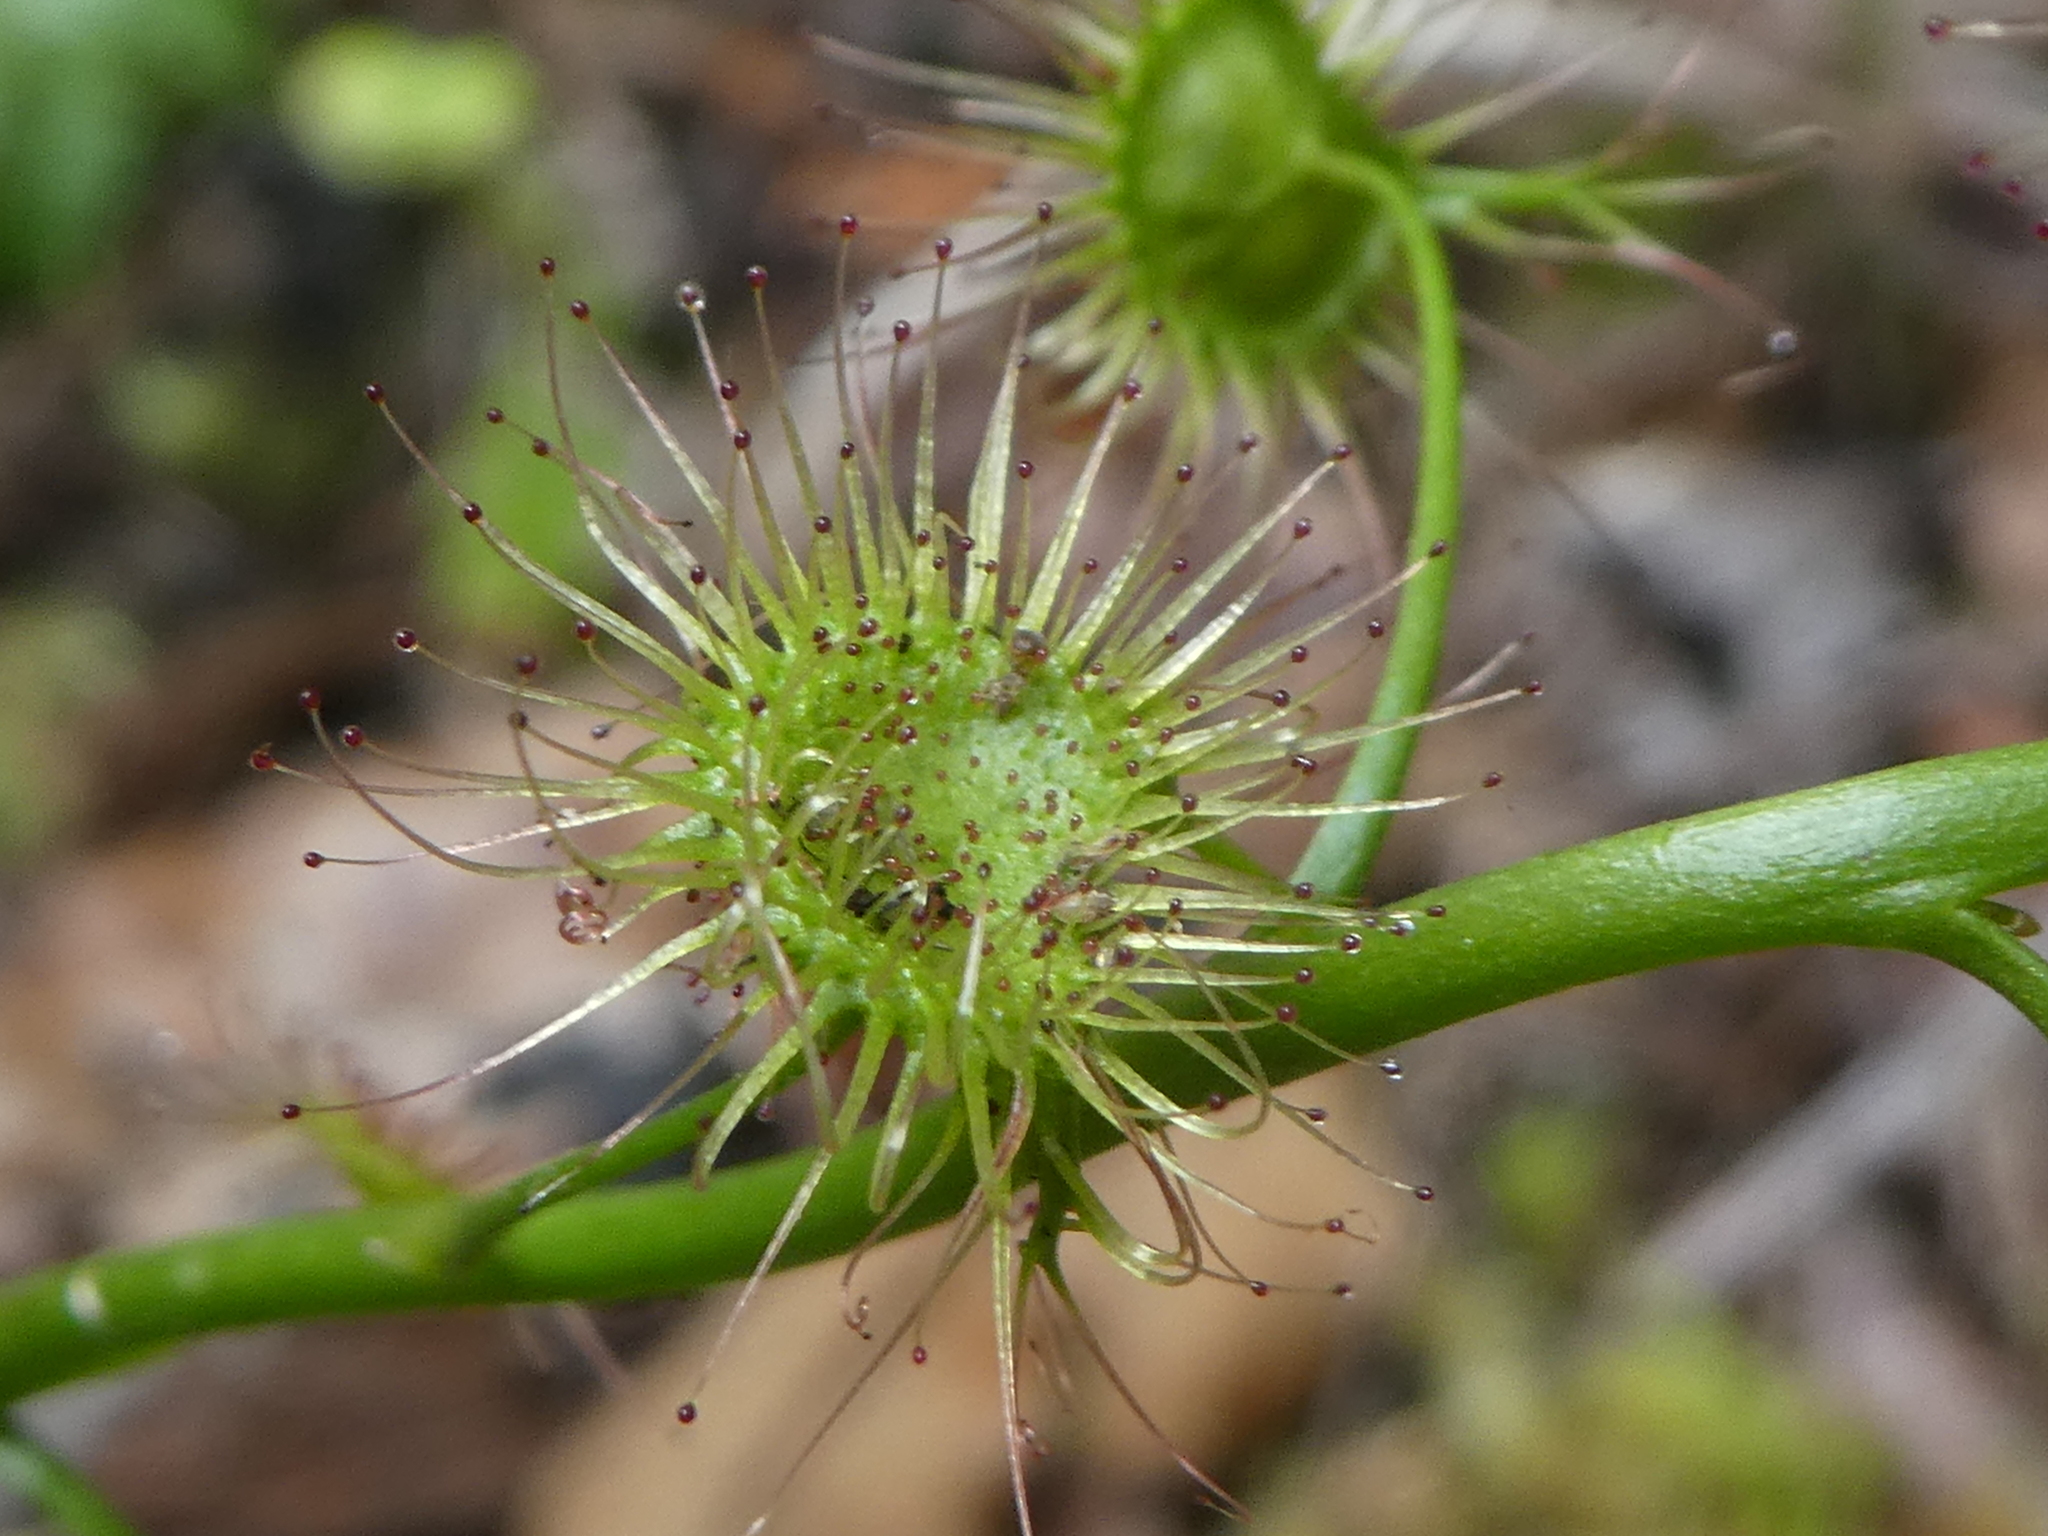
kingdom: Plantae
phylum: Tracheophyta
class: Magnoliopsida
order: Caryophyllales
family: Droseraceae
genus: Drosera
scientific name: Drosera peltata
